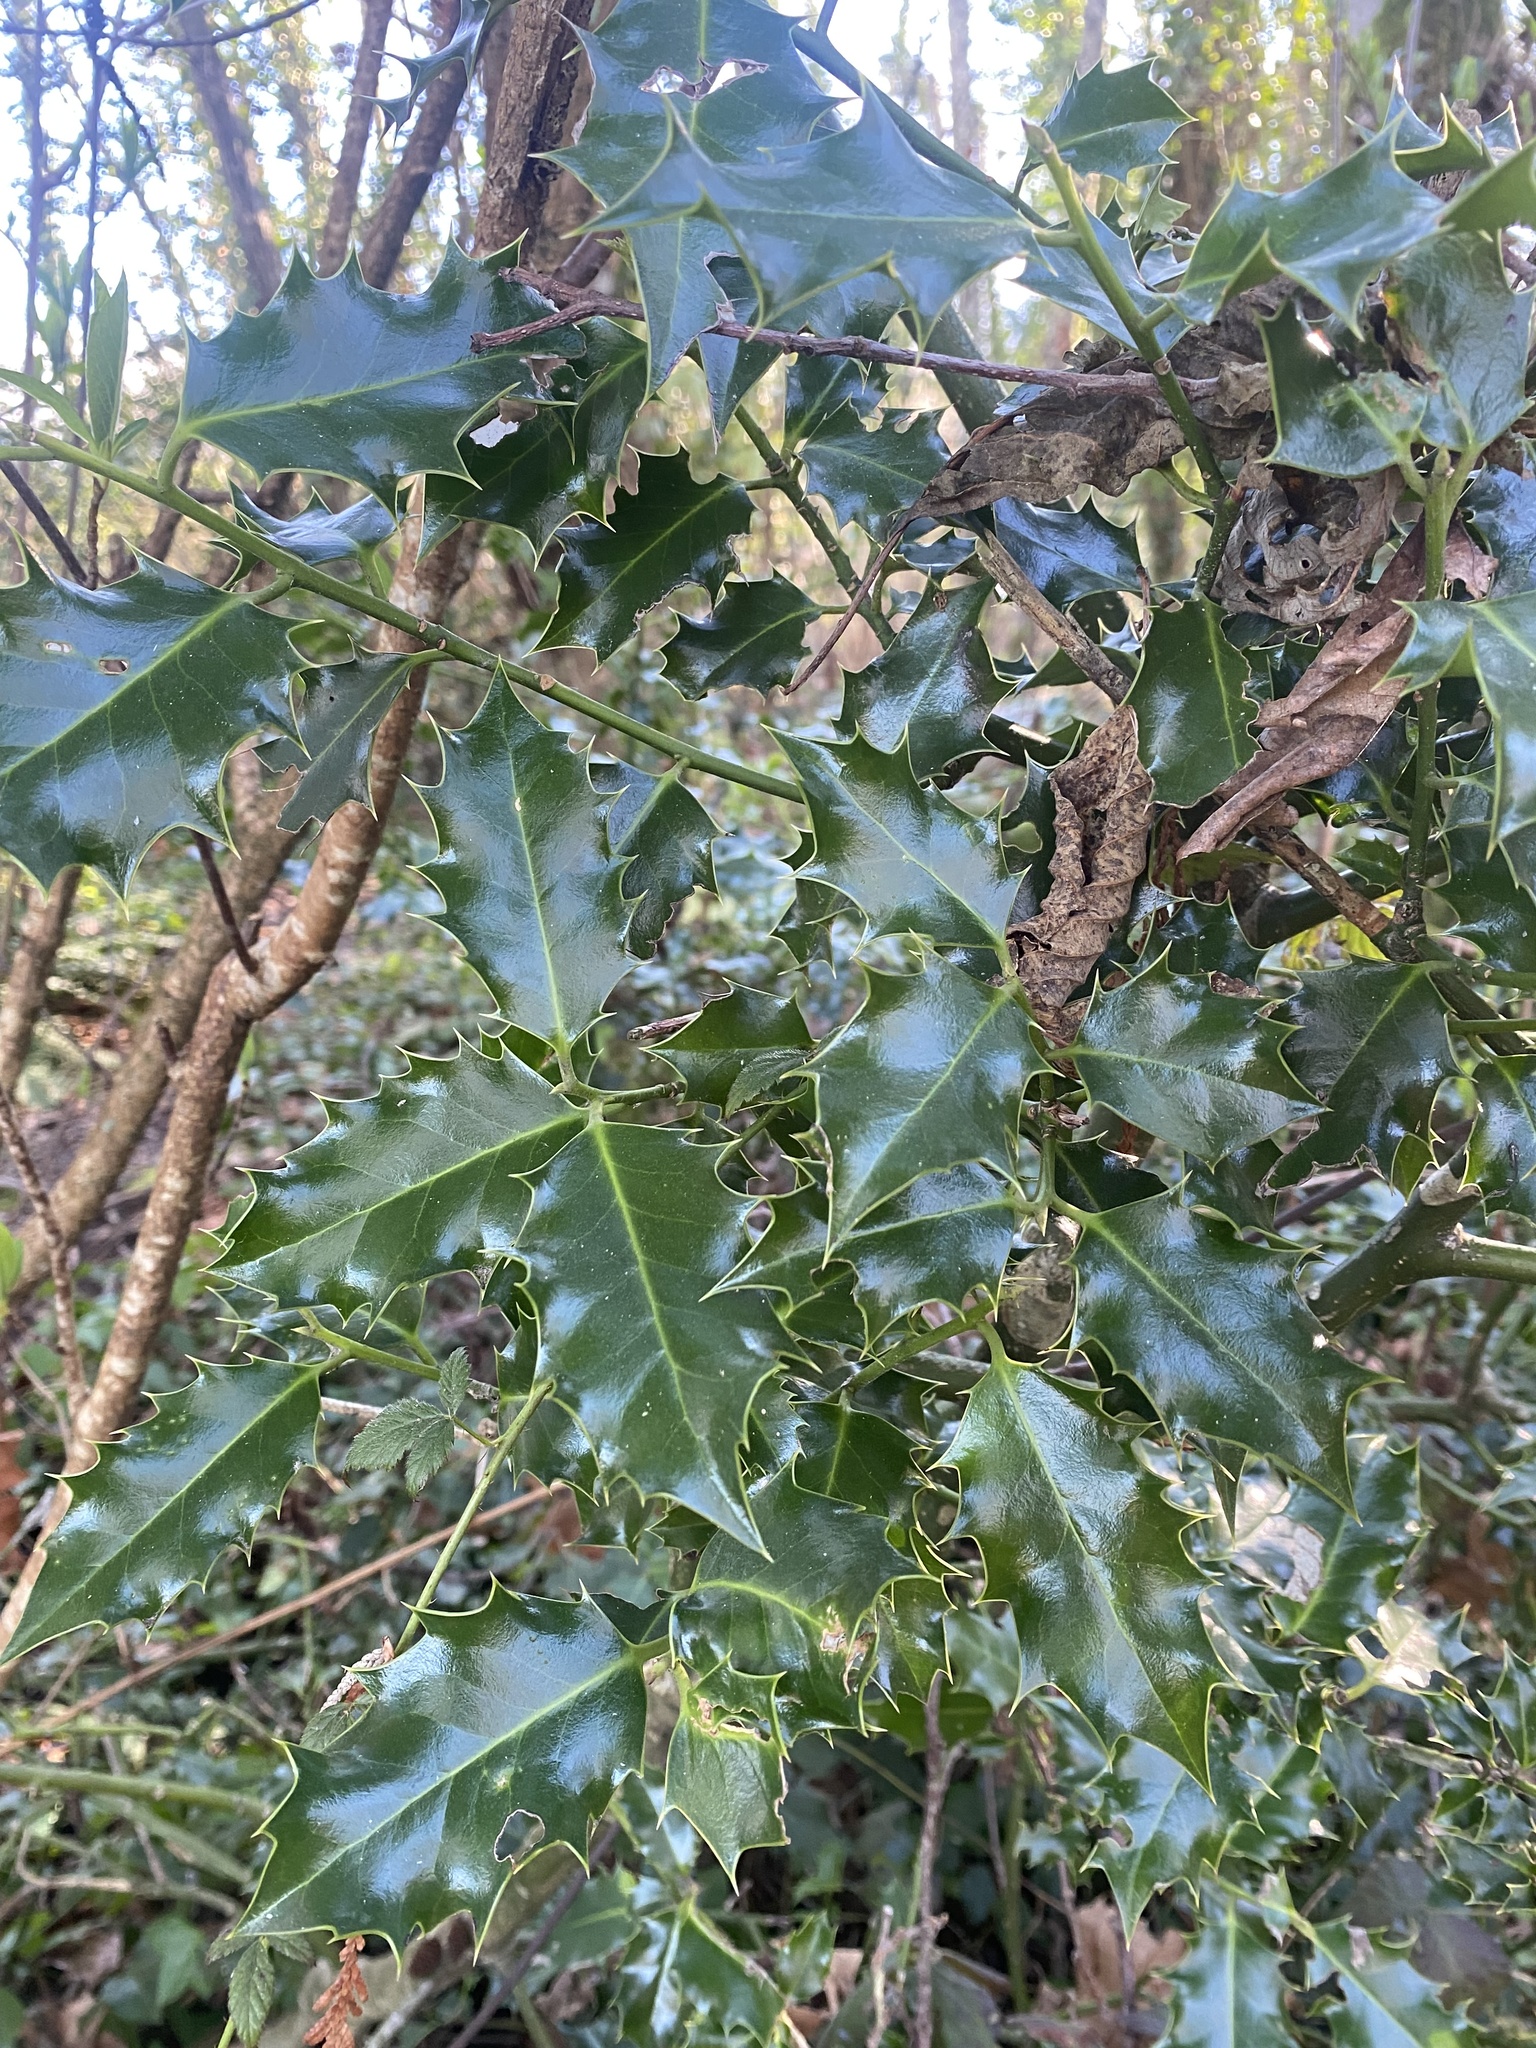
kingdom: Plantae
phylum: Tracheophyta
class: Magnoliopsida
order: Aquifoliales
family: Aquifoliaceae
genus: Ilex
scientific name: Ilex aquifolium
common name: English holly
